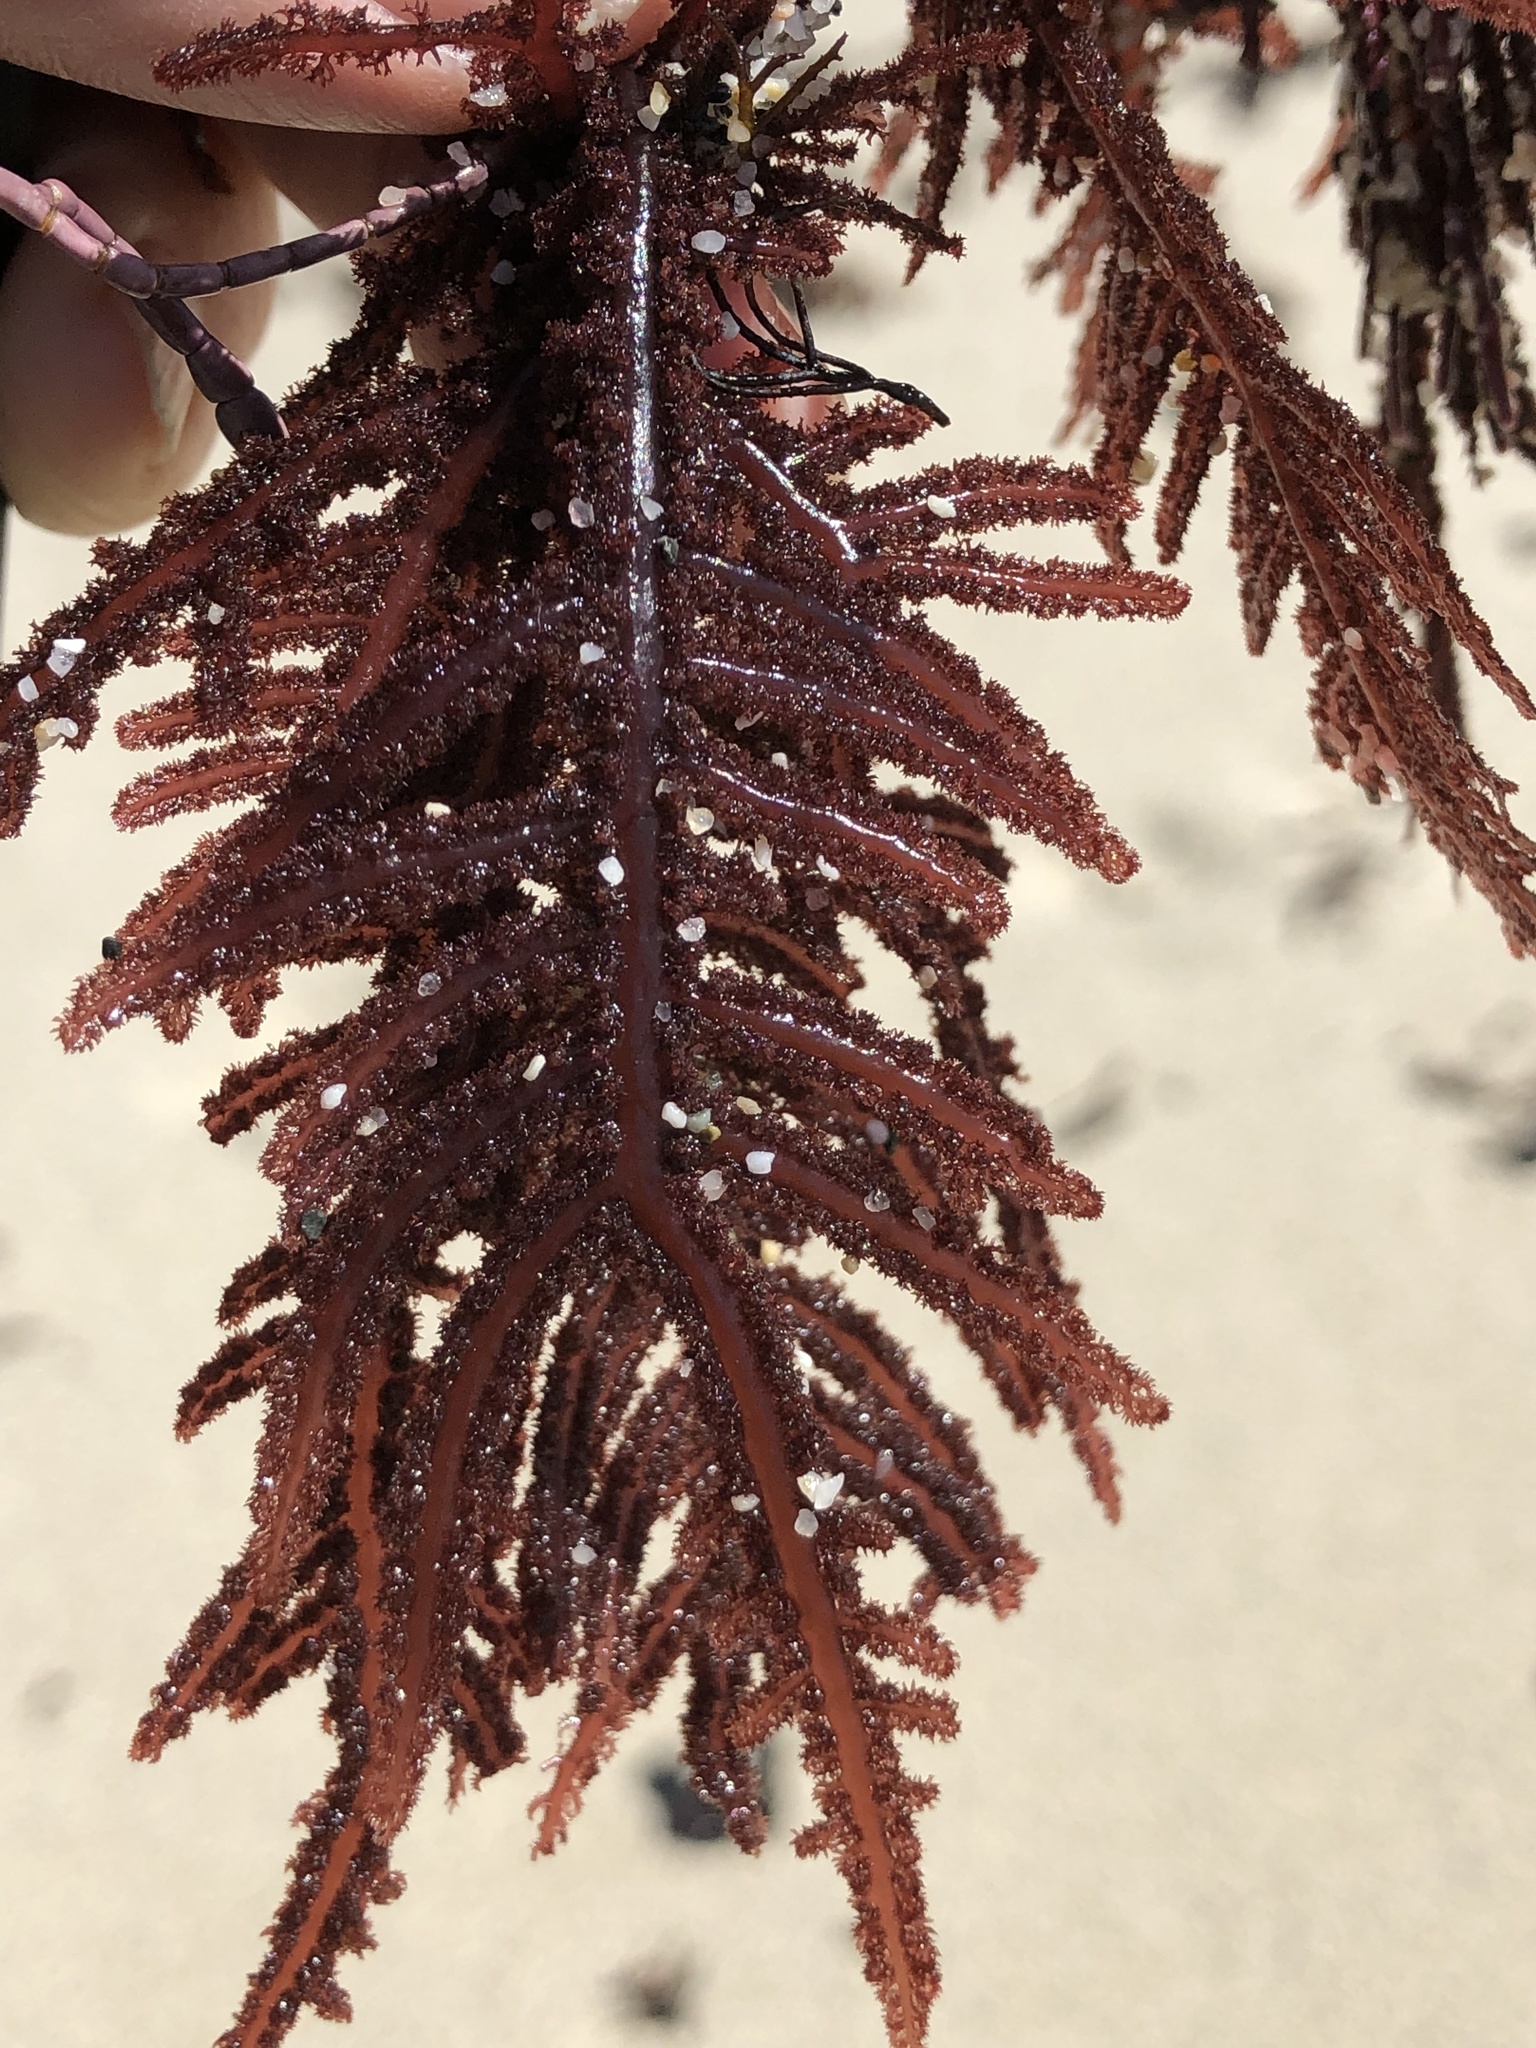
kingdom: Plantae
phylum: Rhodophyta
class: Florideophyceae
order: Ceramiales
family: Wrangeliaceae
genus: Neoptilota
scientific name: Neoptilota densa
